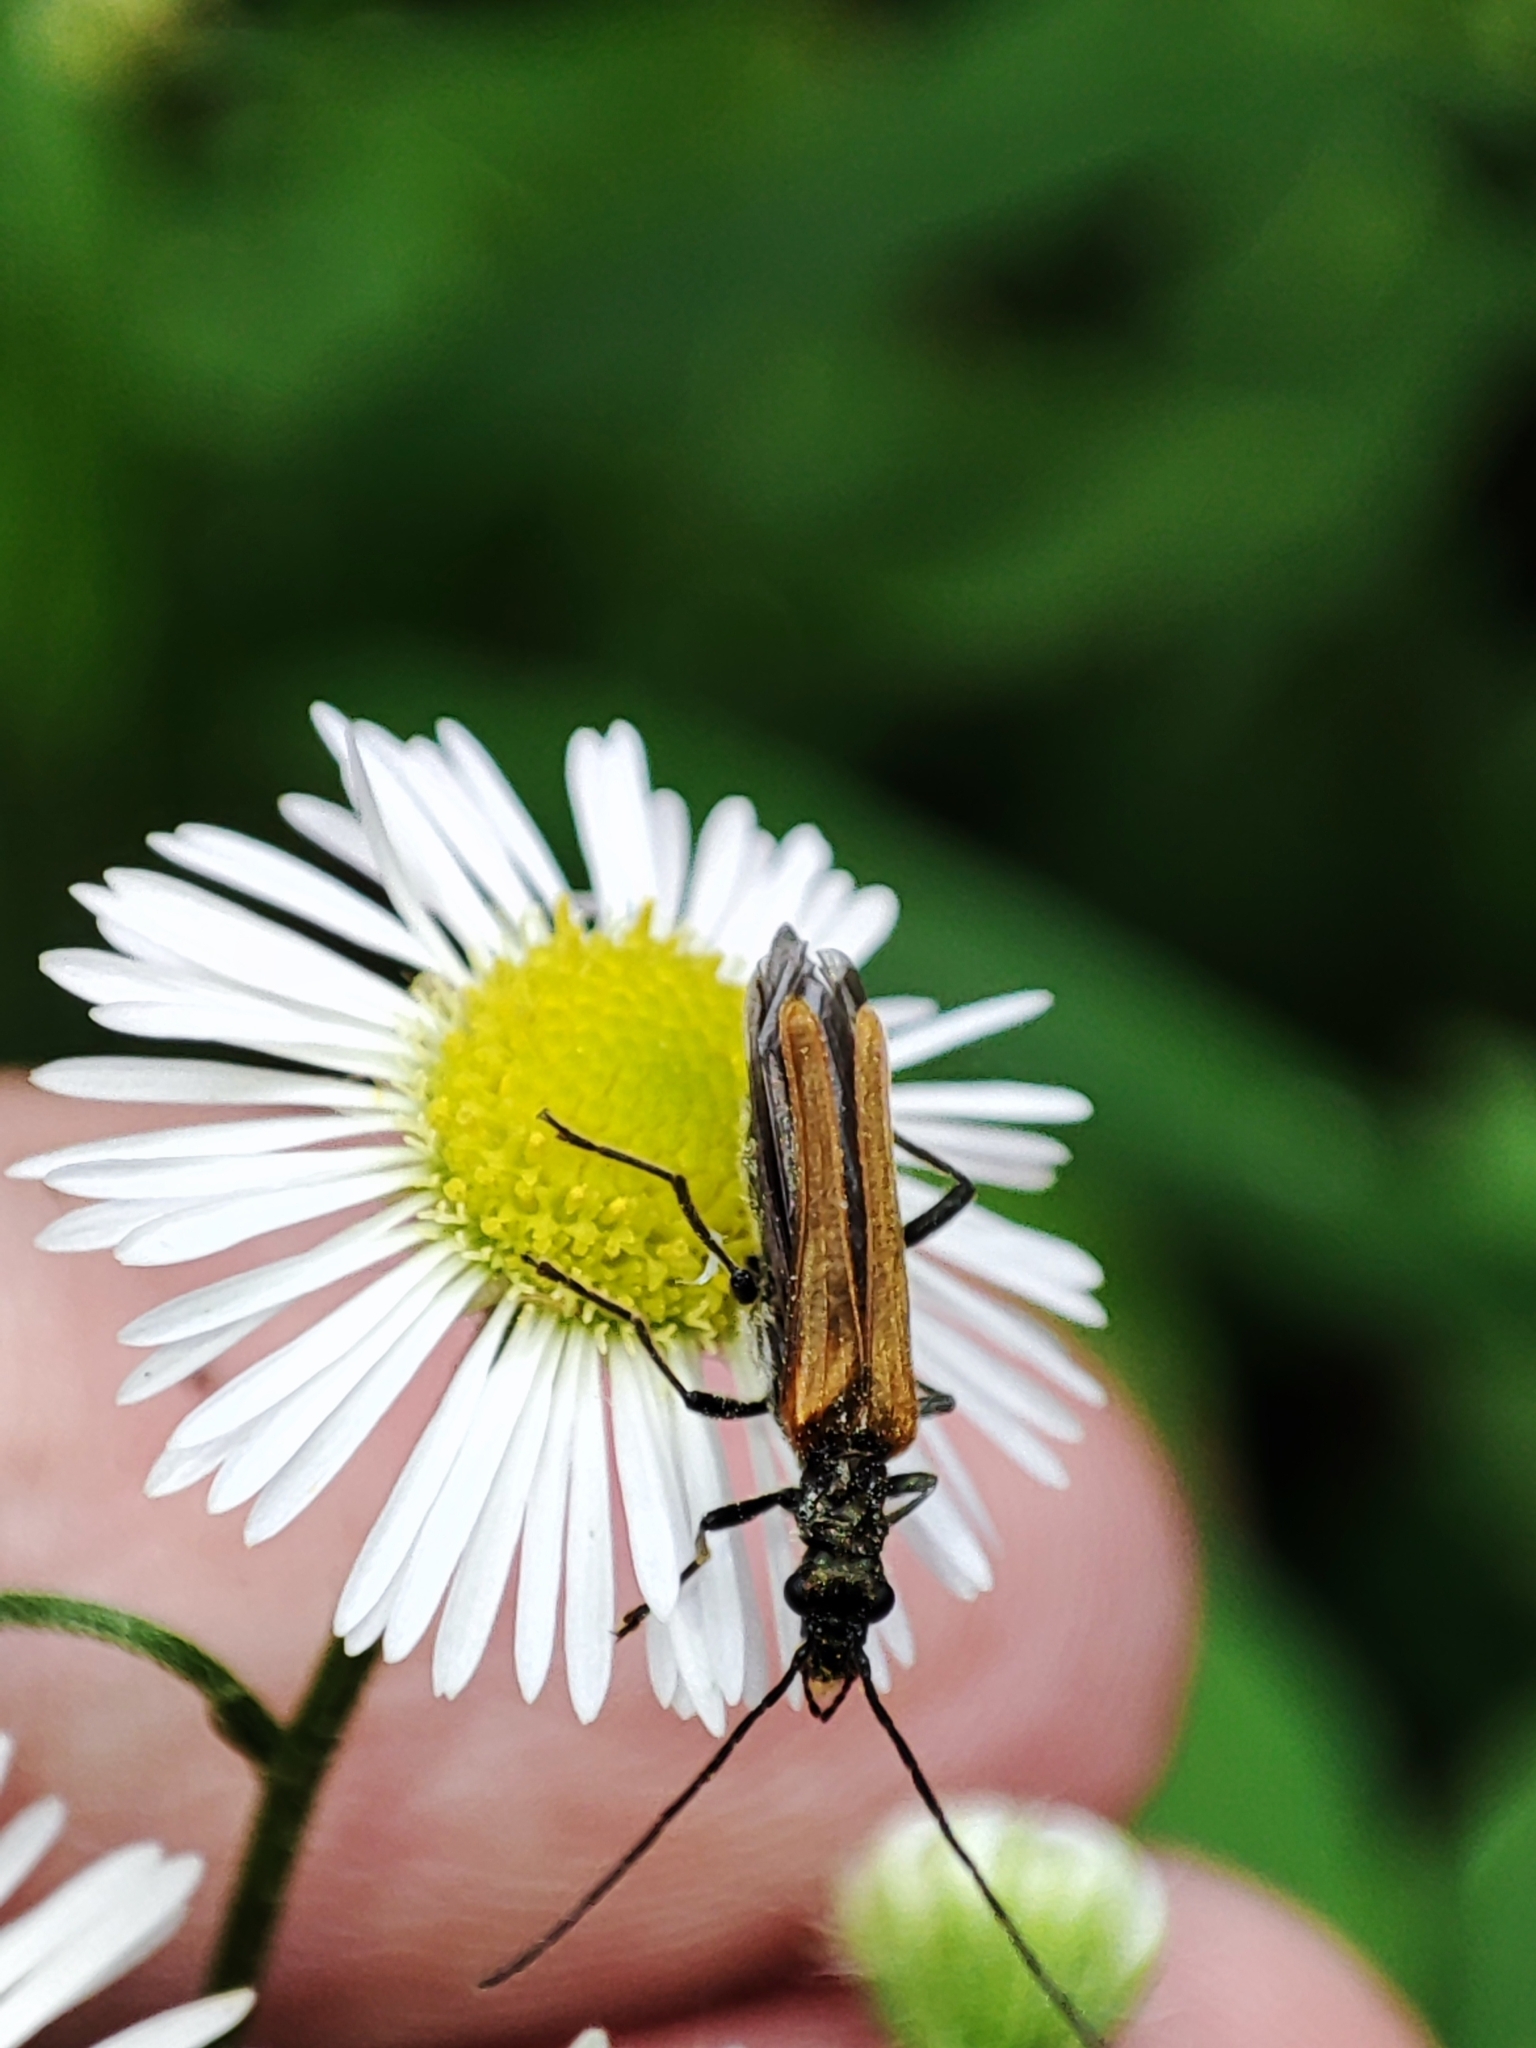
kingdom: Animalia
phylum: Arthropoda
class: Insecta
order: Coleoptera
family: Oedemeridae
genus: Oedemera
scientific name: Oedemera femorata
